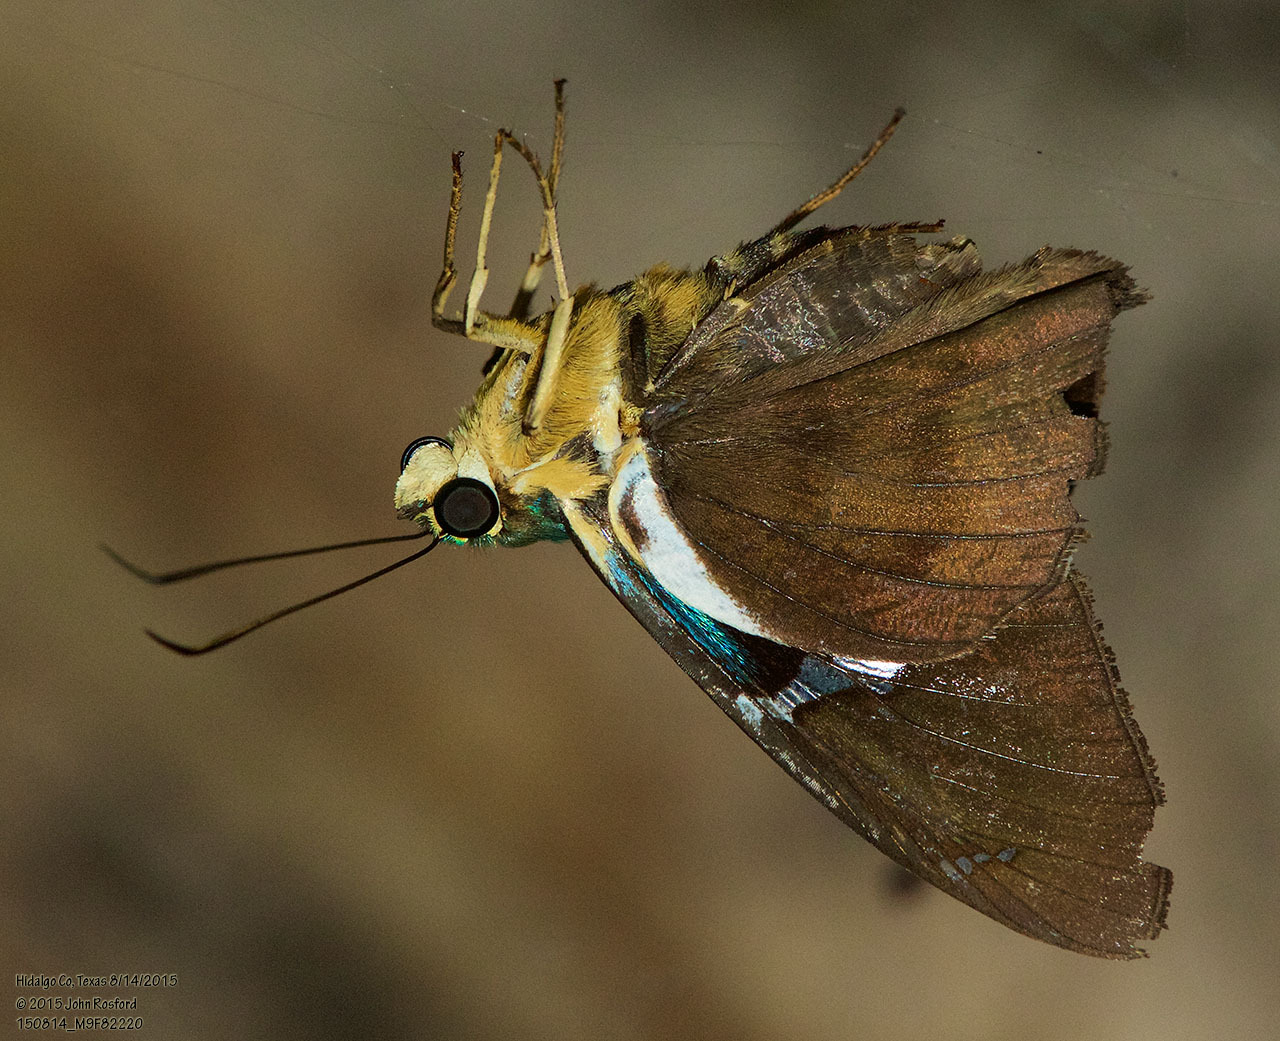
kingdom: Animalia
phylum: Arthropoda
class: Insecta
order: Lepidoptera
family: Hesperiidae
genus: Astraptes
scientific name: Astraptes fulgerator
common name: Two-barred flasher
